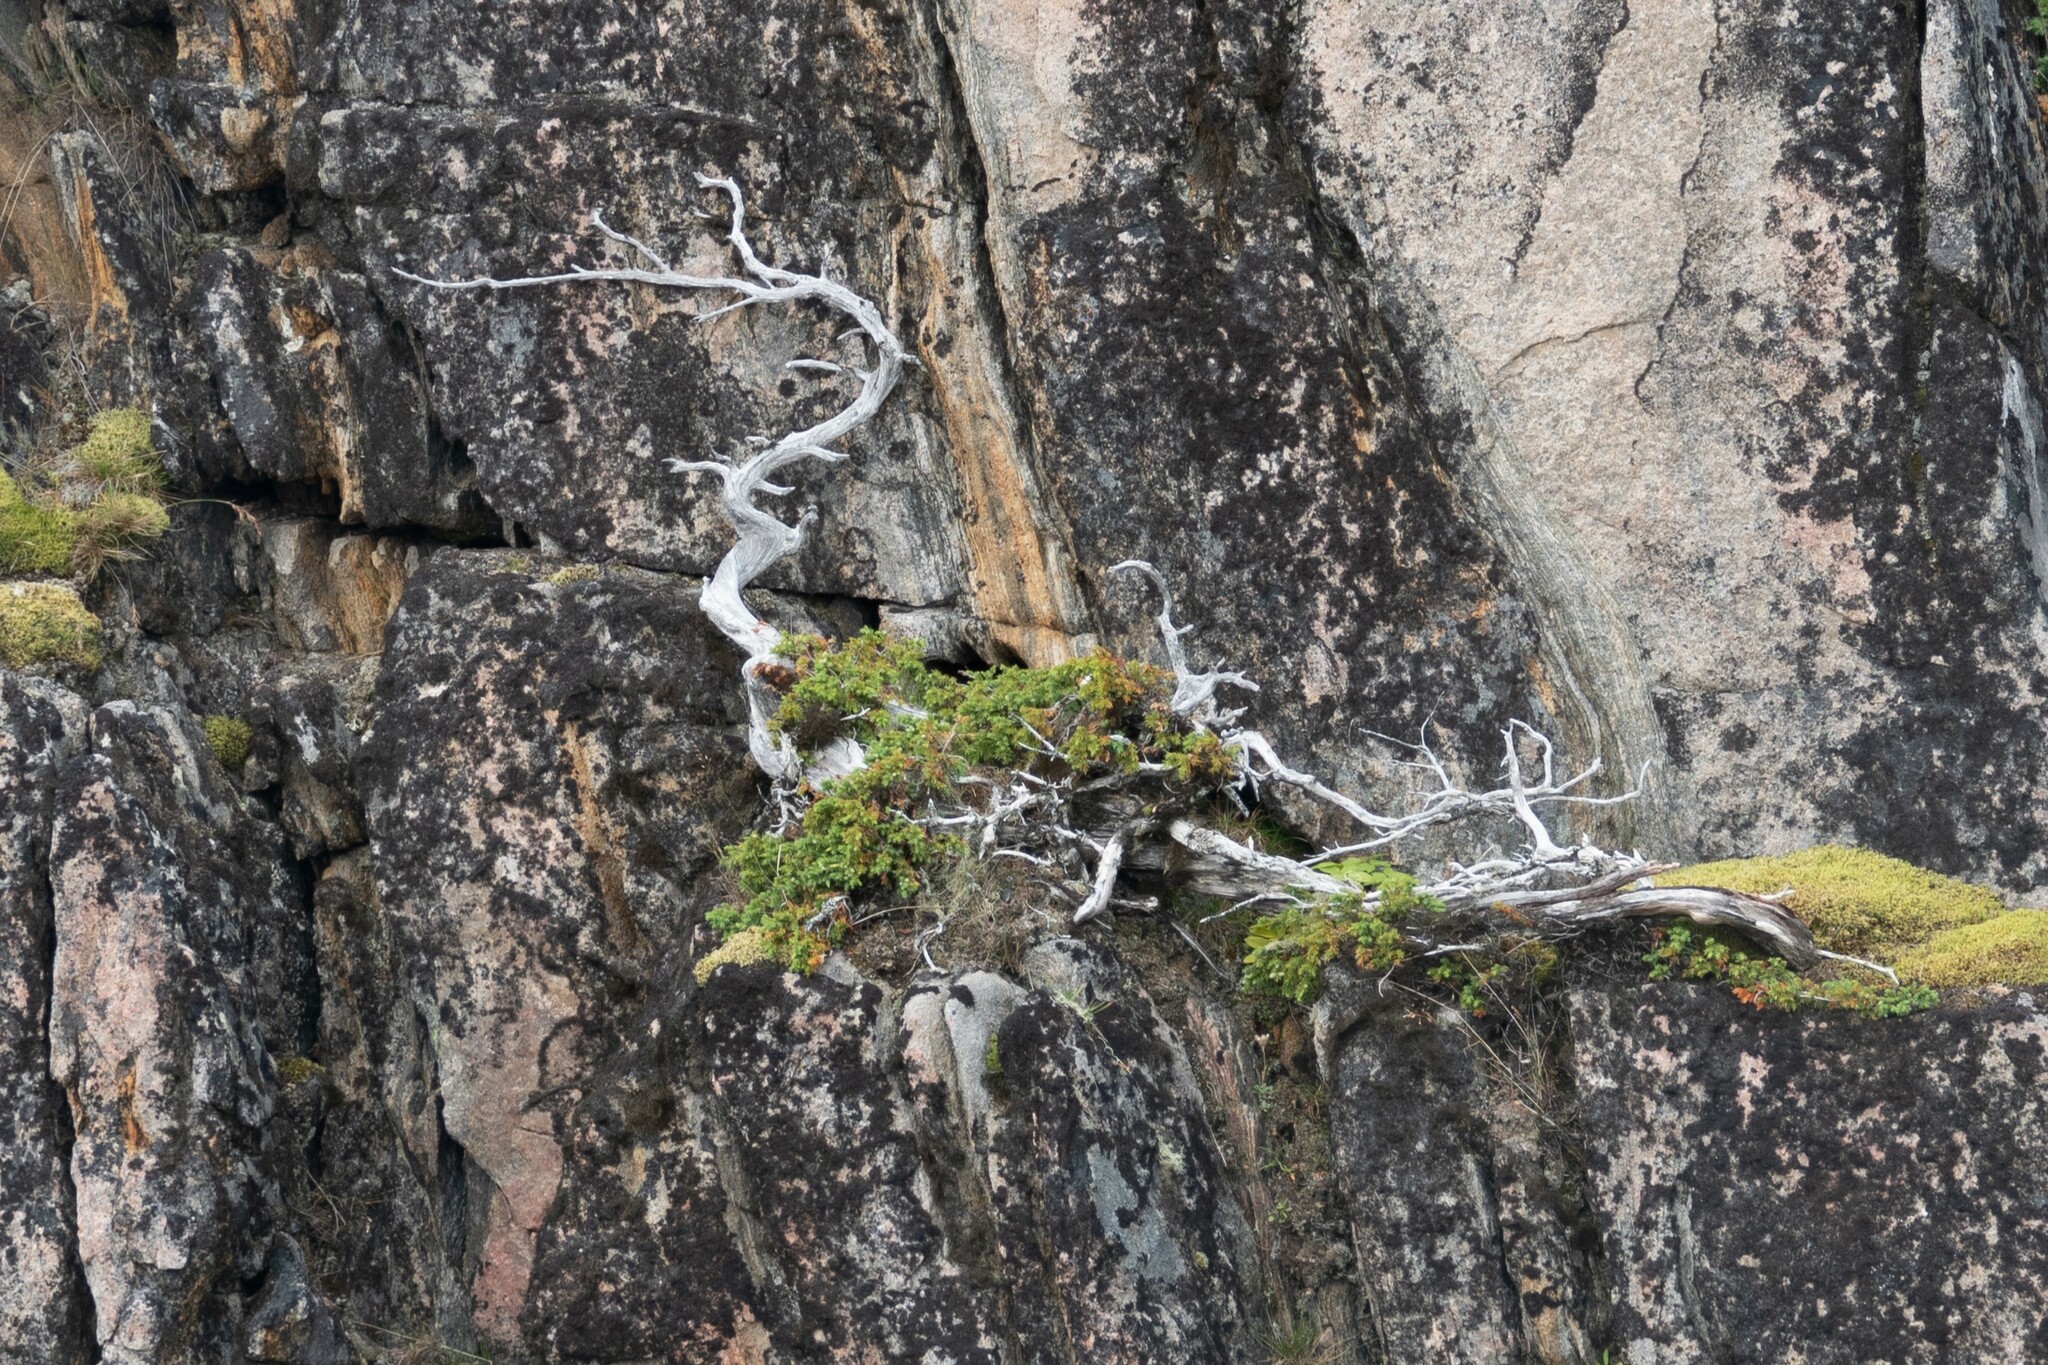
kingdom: Plantae
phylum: Tracheophyta
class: Pinopsida
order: Pinales
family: Cupressaceae
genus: Juniperus
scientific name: Juniperus communis
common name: Common juniper
